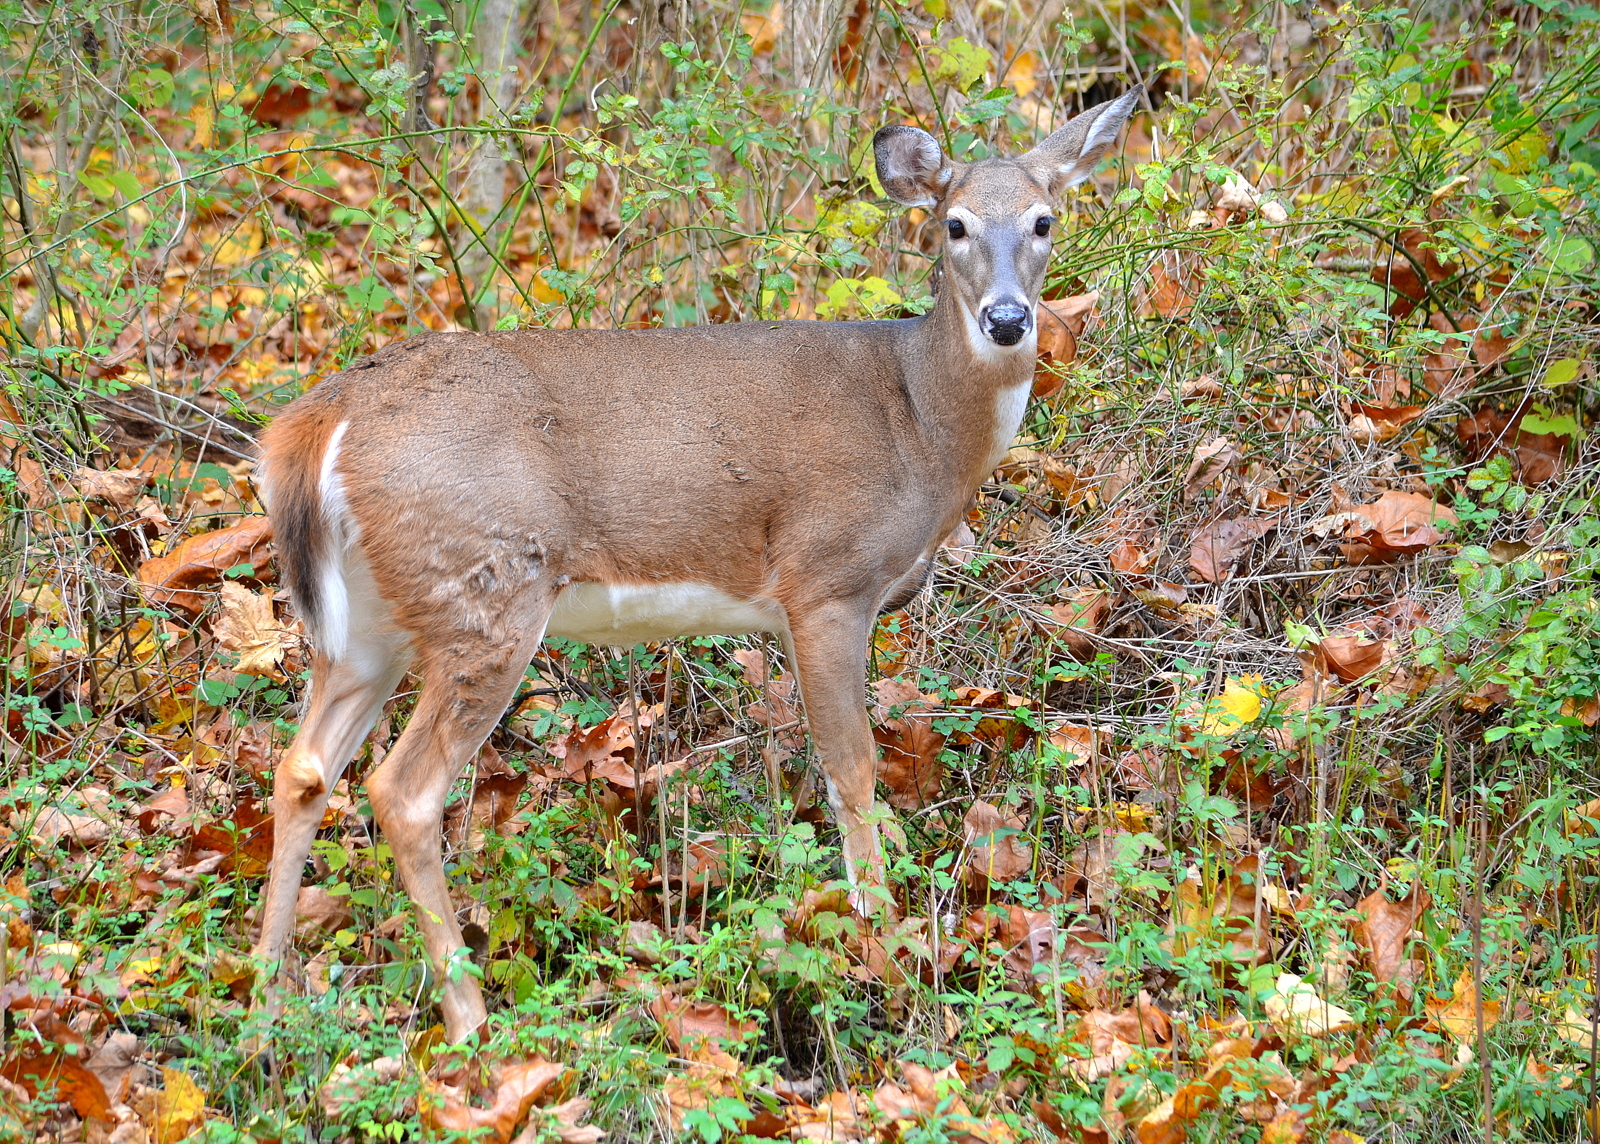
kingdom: Animalia
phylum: Chordata
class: Mammalia
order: Artiodactyla
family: Cervidae
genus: Odocoileus
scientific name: Odocoileus virginianus
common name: White-tailed deer
